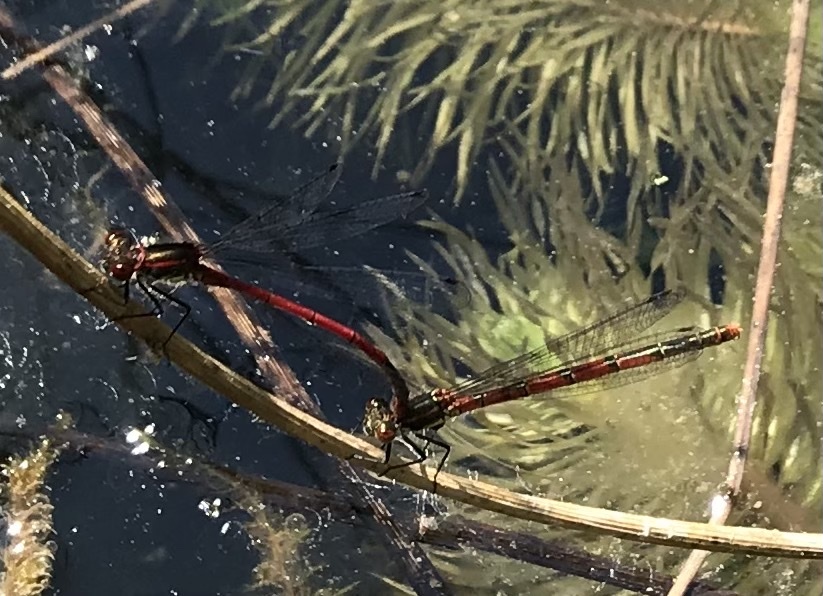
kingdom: Animalia
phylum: Arthropoda
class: Insecta
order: Odonata
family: Coenagrionidae
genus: Pyrrhosoma
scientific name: Pyrrhosoma nymphula
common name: Large red damsel
